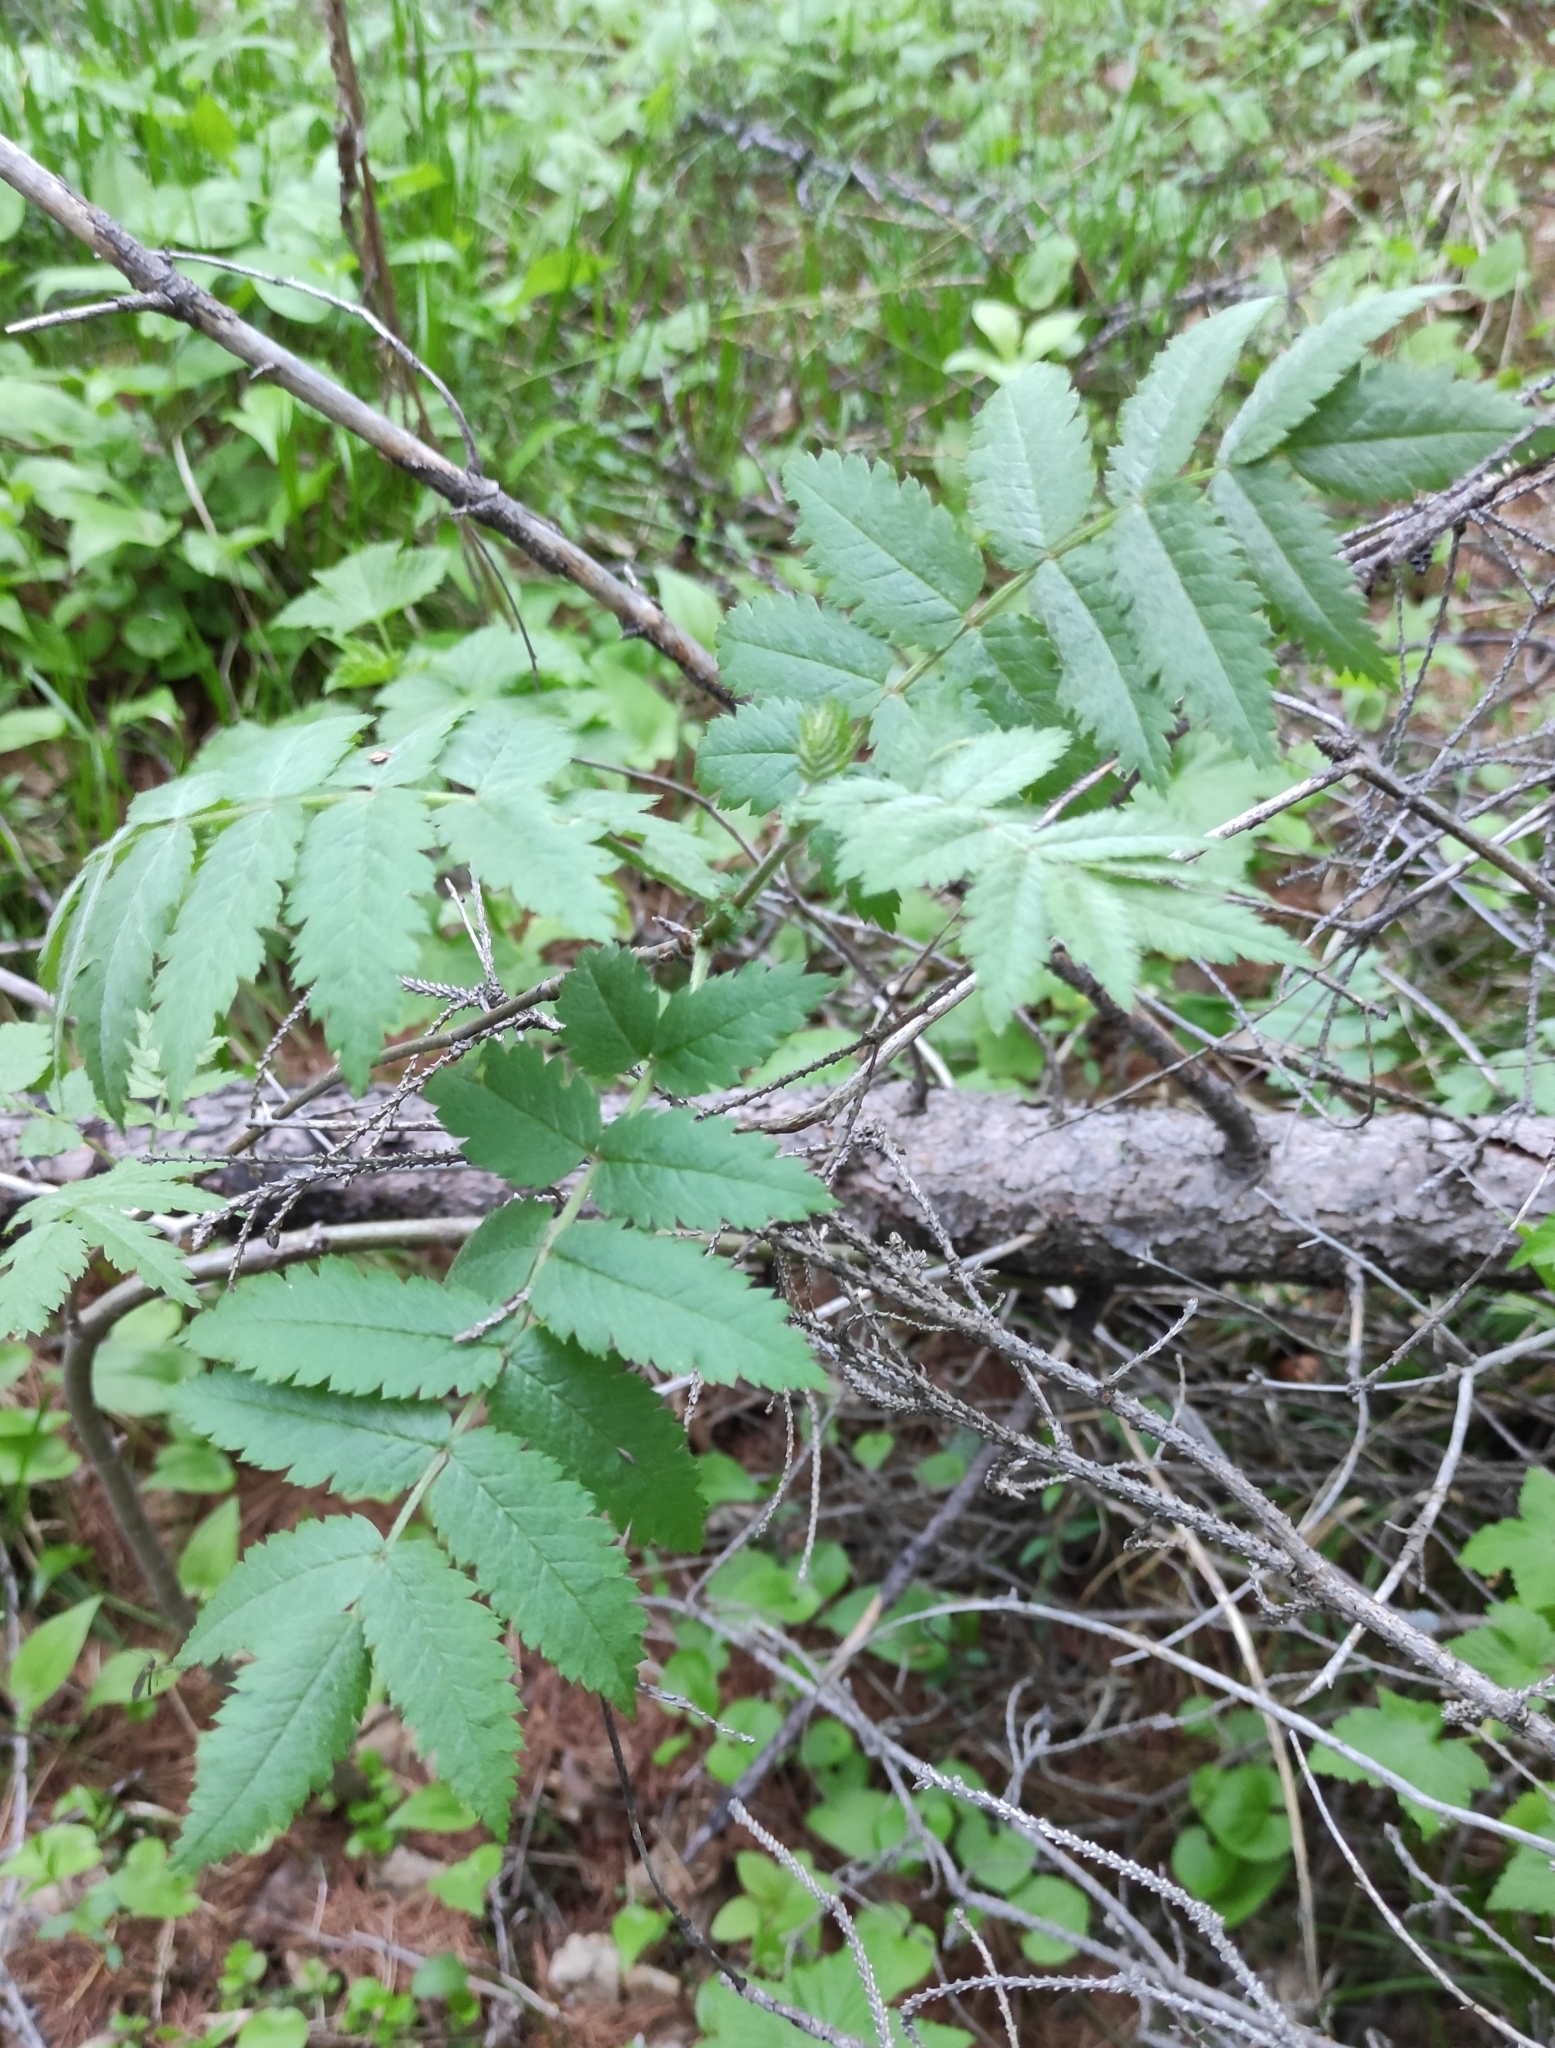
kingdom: Plantae
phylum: Tracheophyta
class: Magnoliopsida
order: Rosales
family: Rosaceae
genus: Sorbus
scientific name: Sorbus aucuparia
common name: Rowan
